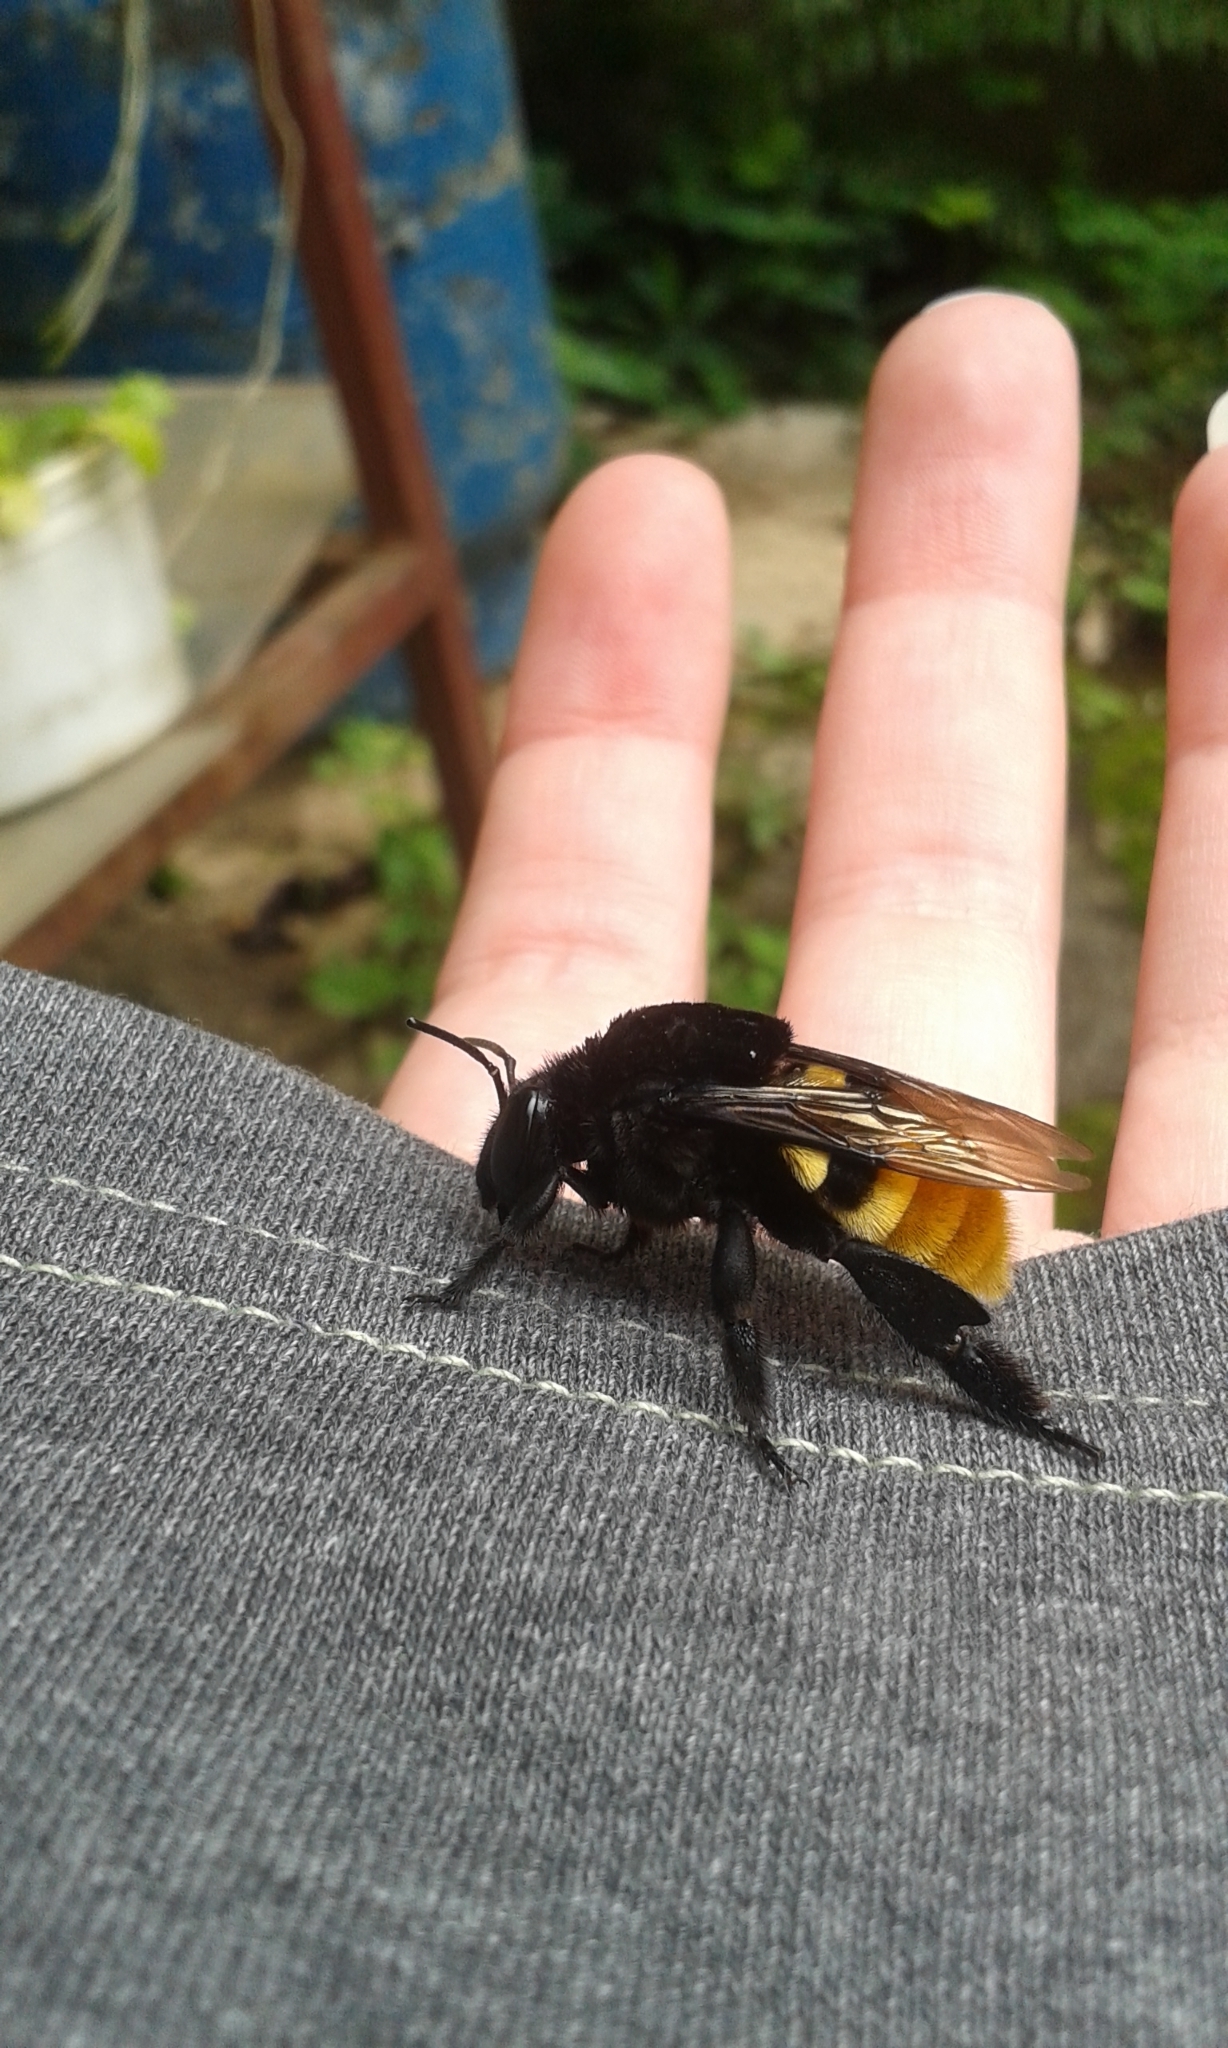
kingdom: Animalia
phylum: Arthropoda
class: Insecta
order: Hymenoptera
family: Apidae
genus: Eulaema
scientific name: Eulaema cingulata
